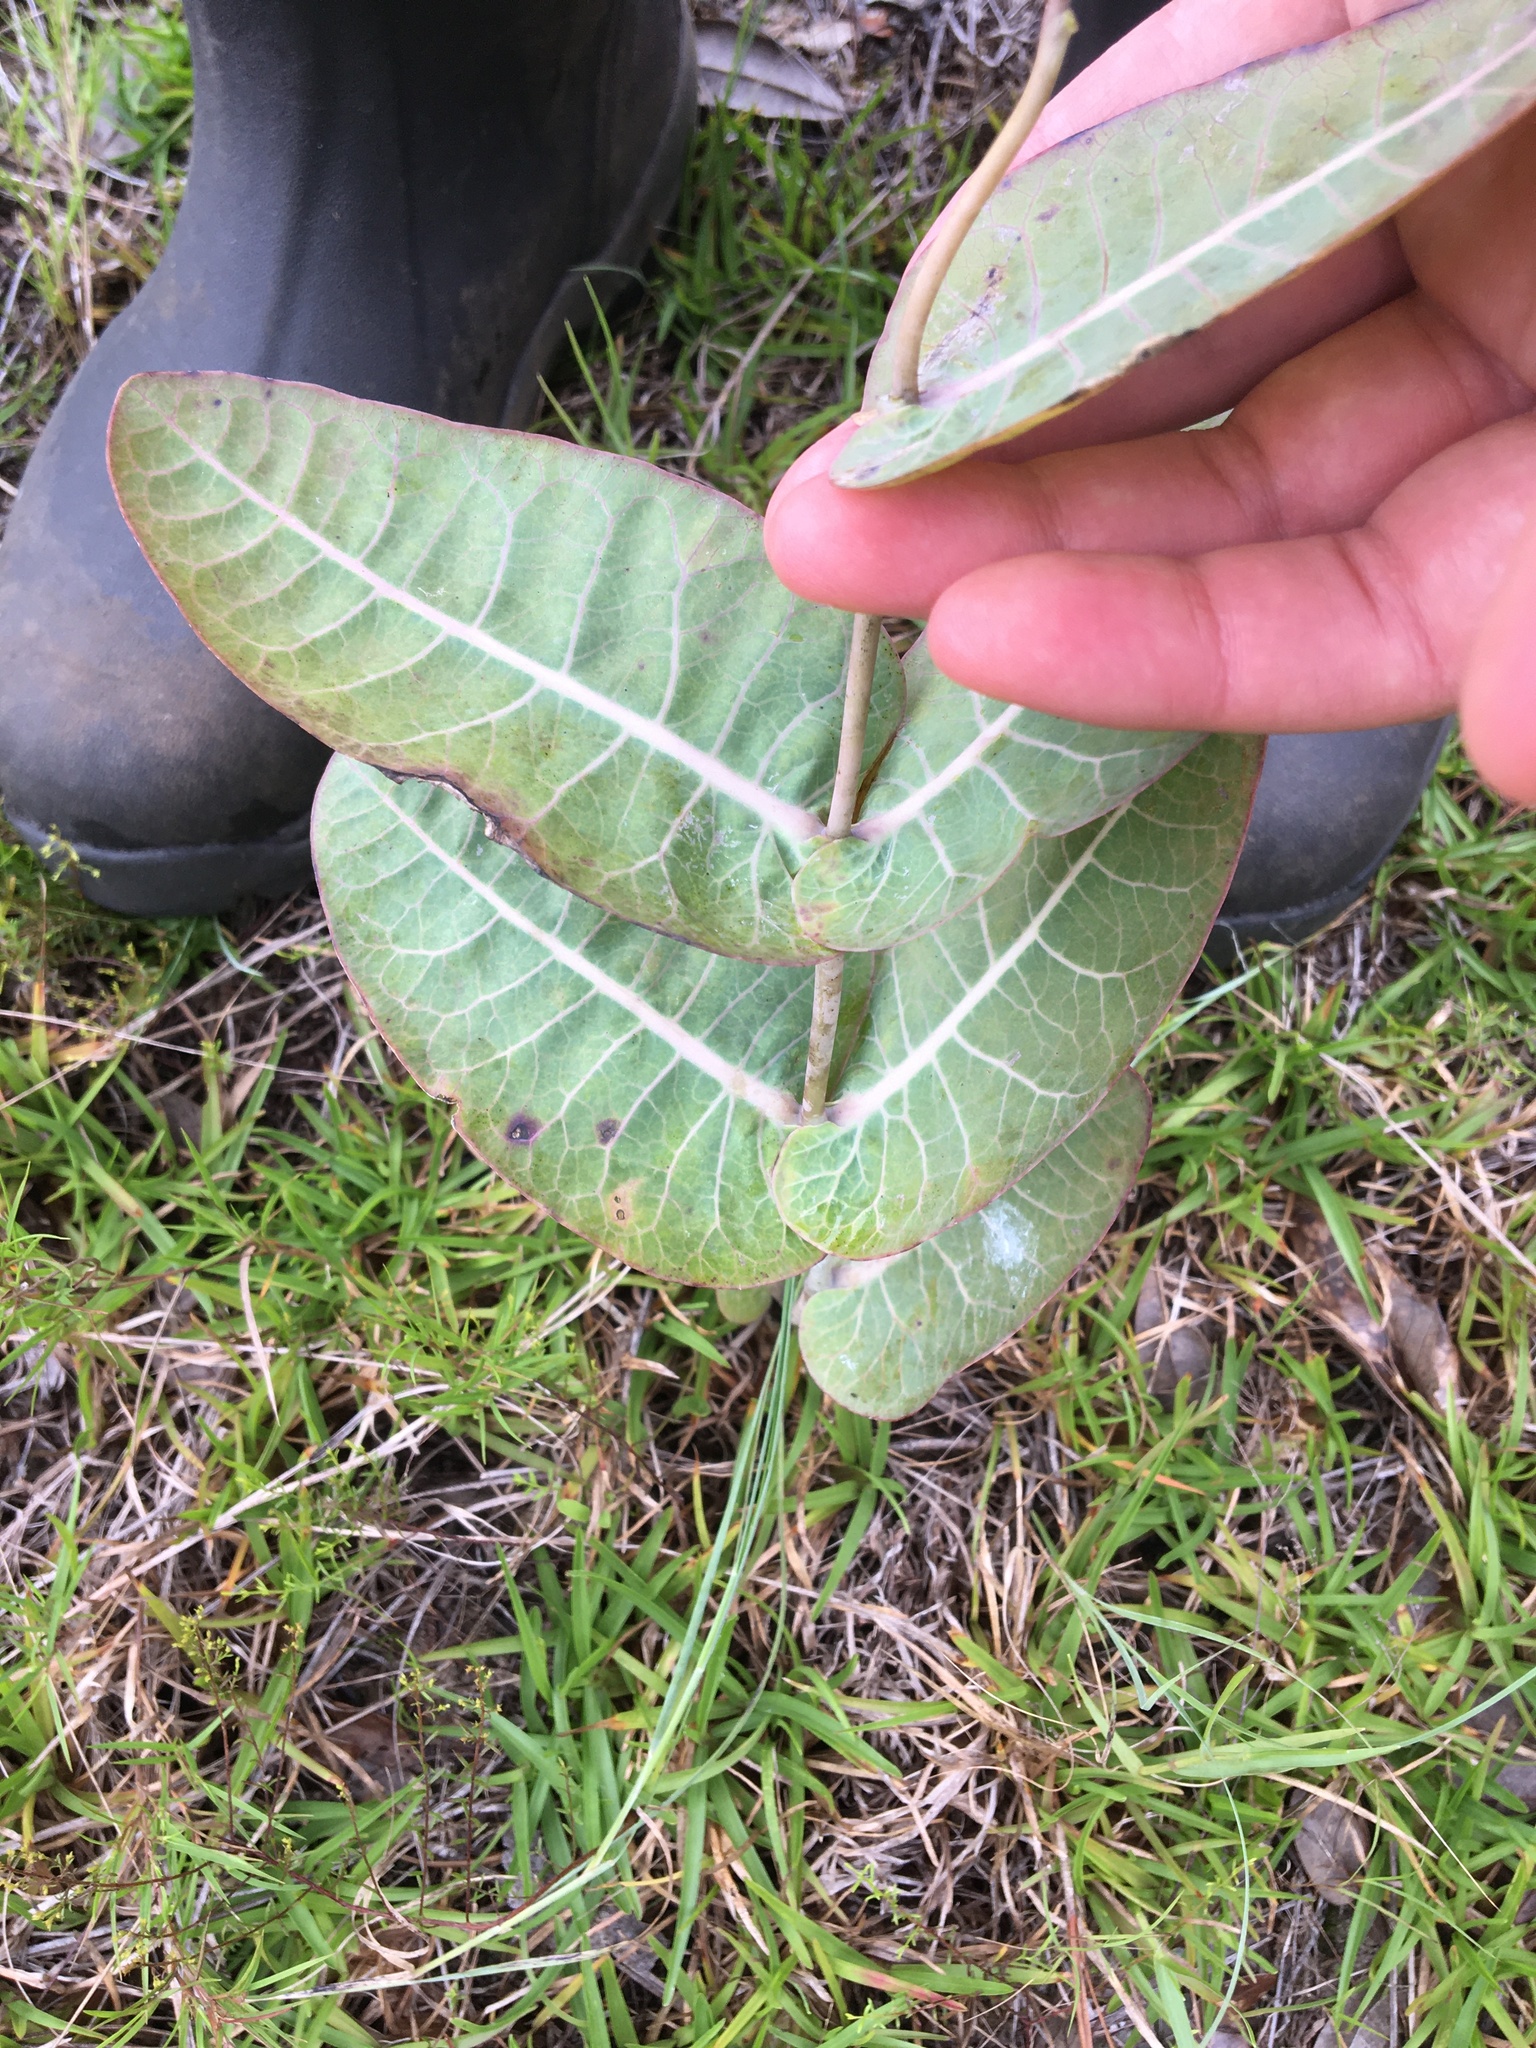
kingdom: Plantae
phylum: Tracheophyta
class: Magnoliopsida
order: Gentianales
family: Apocynaceae
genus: Asclepias
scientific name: Asclepias humistrata
